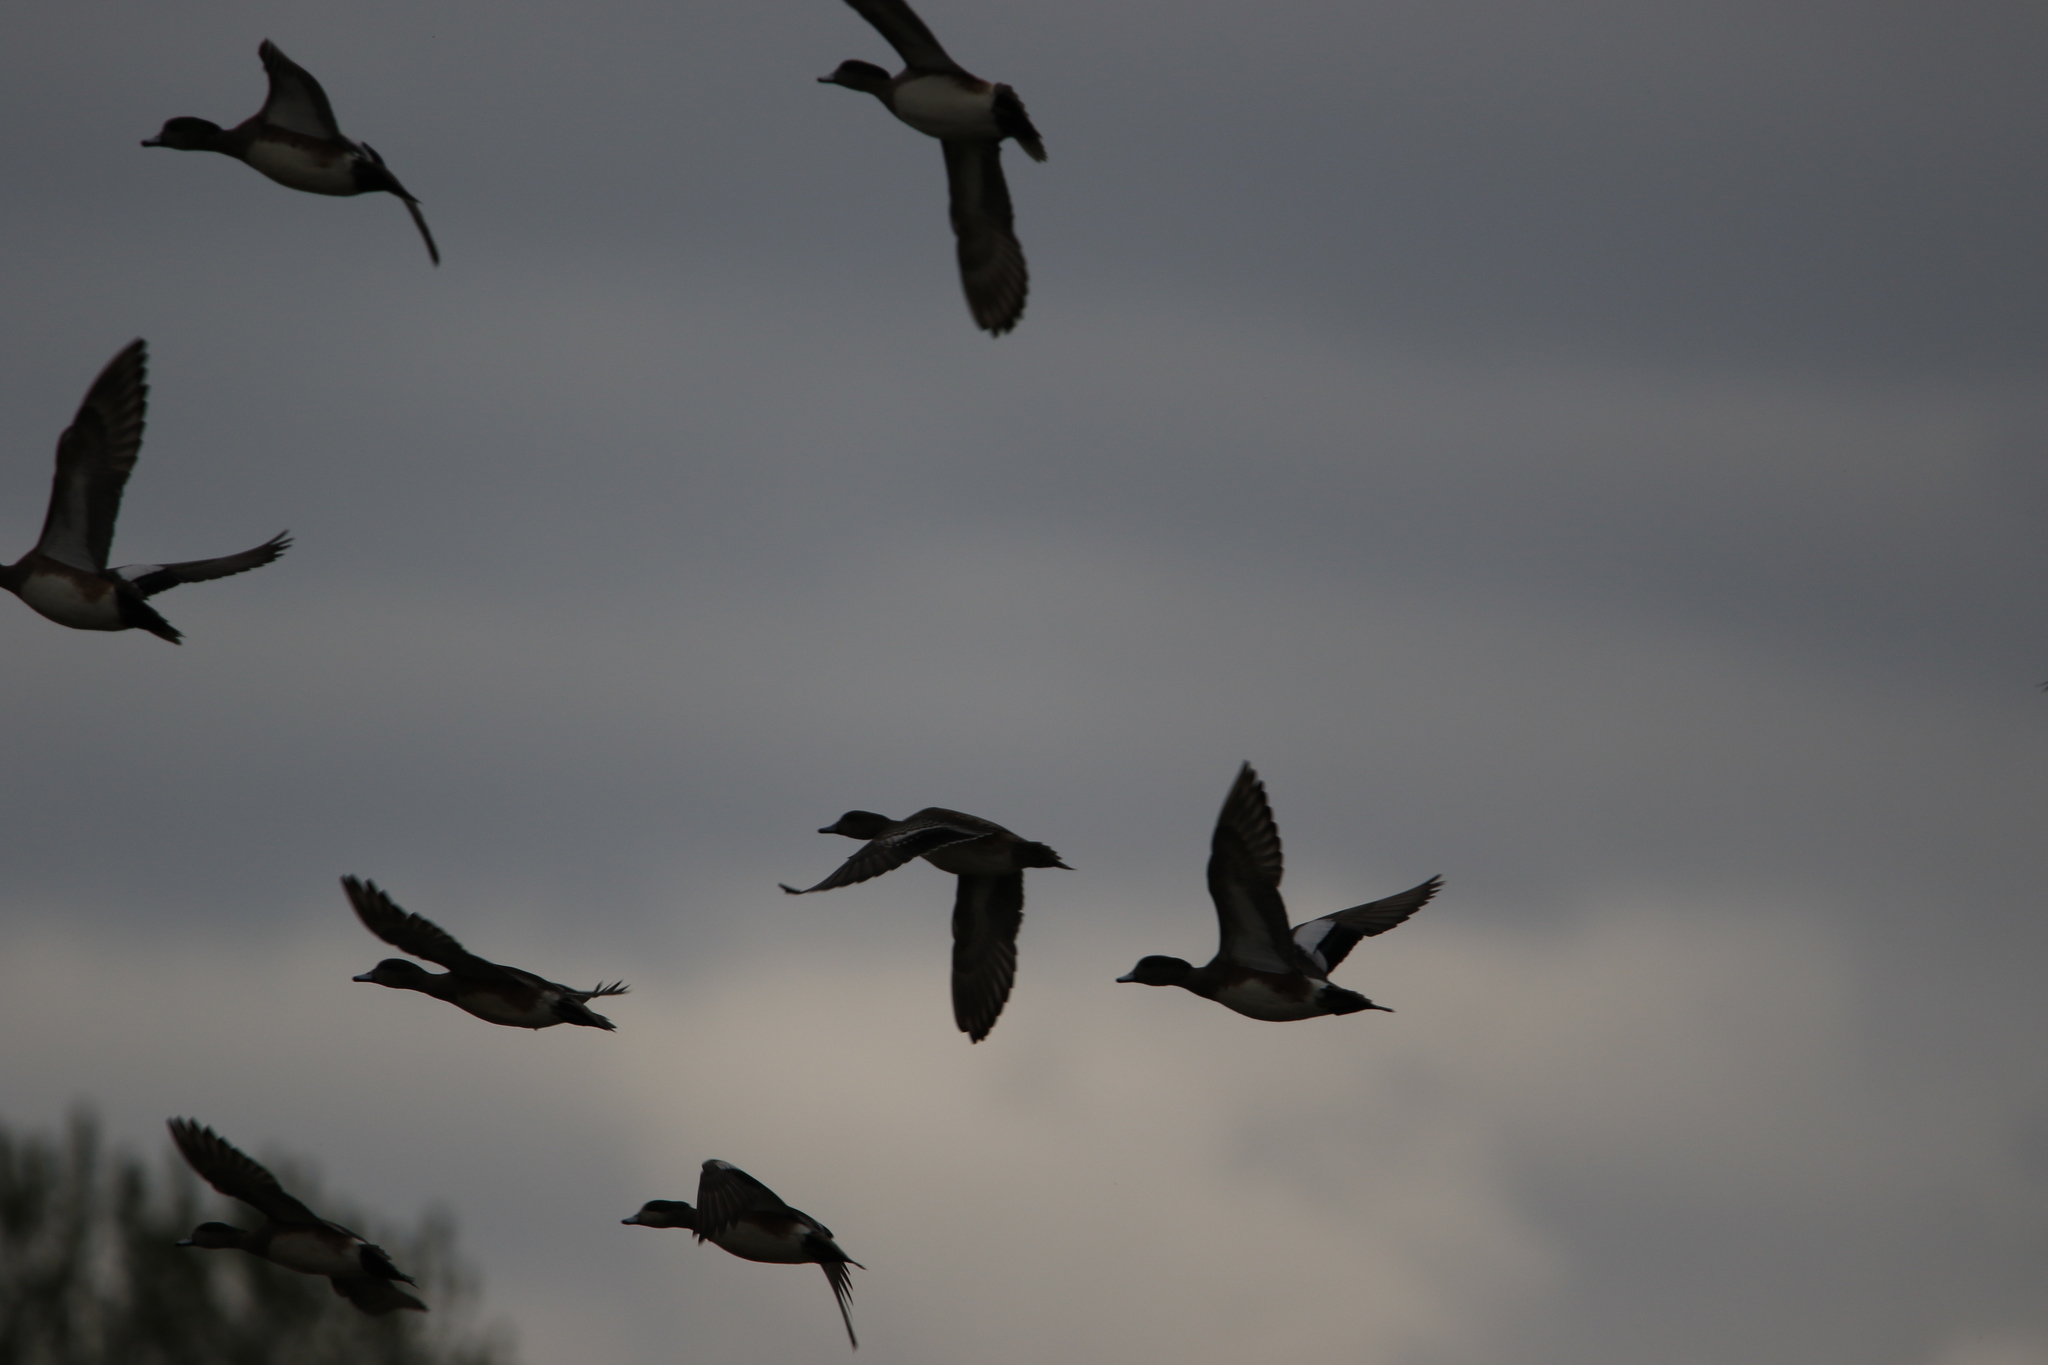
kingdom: Animalia
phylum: Chordata
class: Aves
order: Anseriformes
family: Anatidae
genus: Mareca
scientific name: Mareca americana
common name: American wigeon
